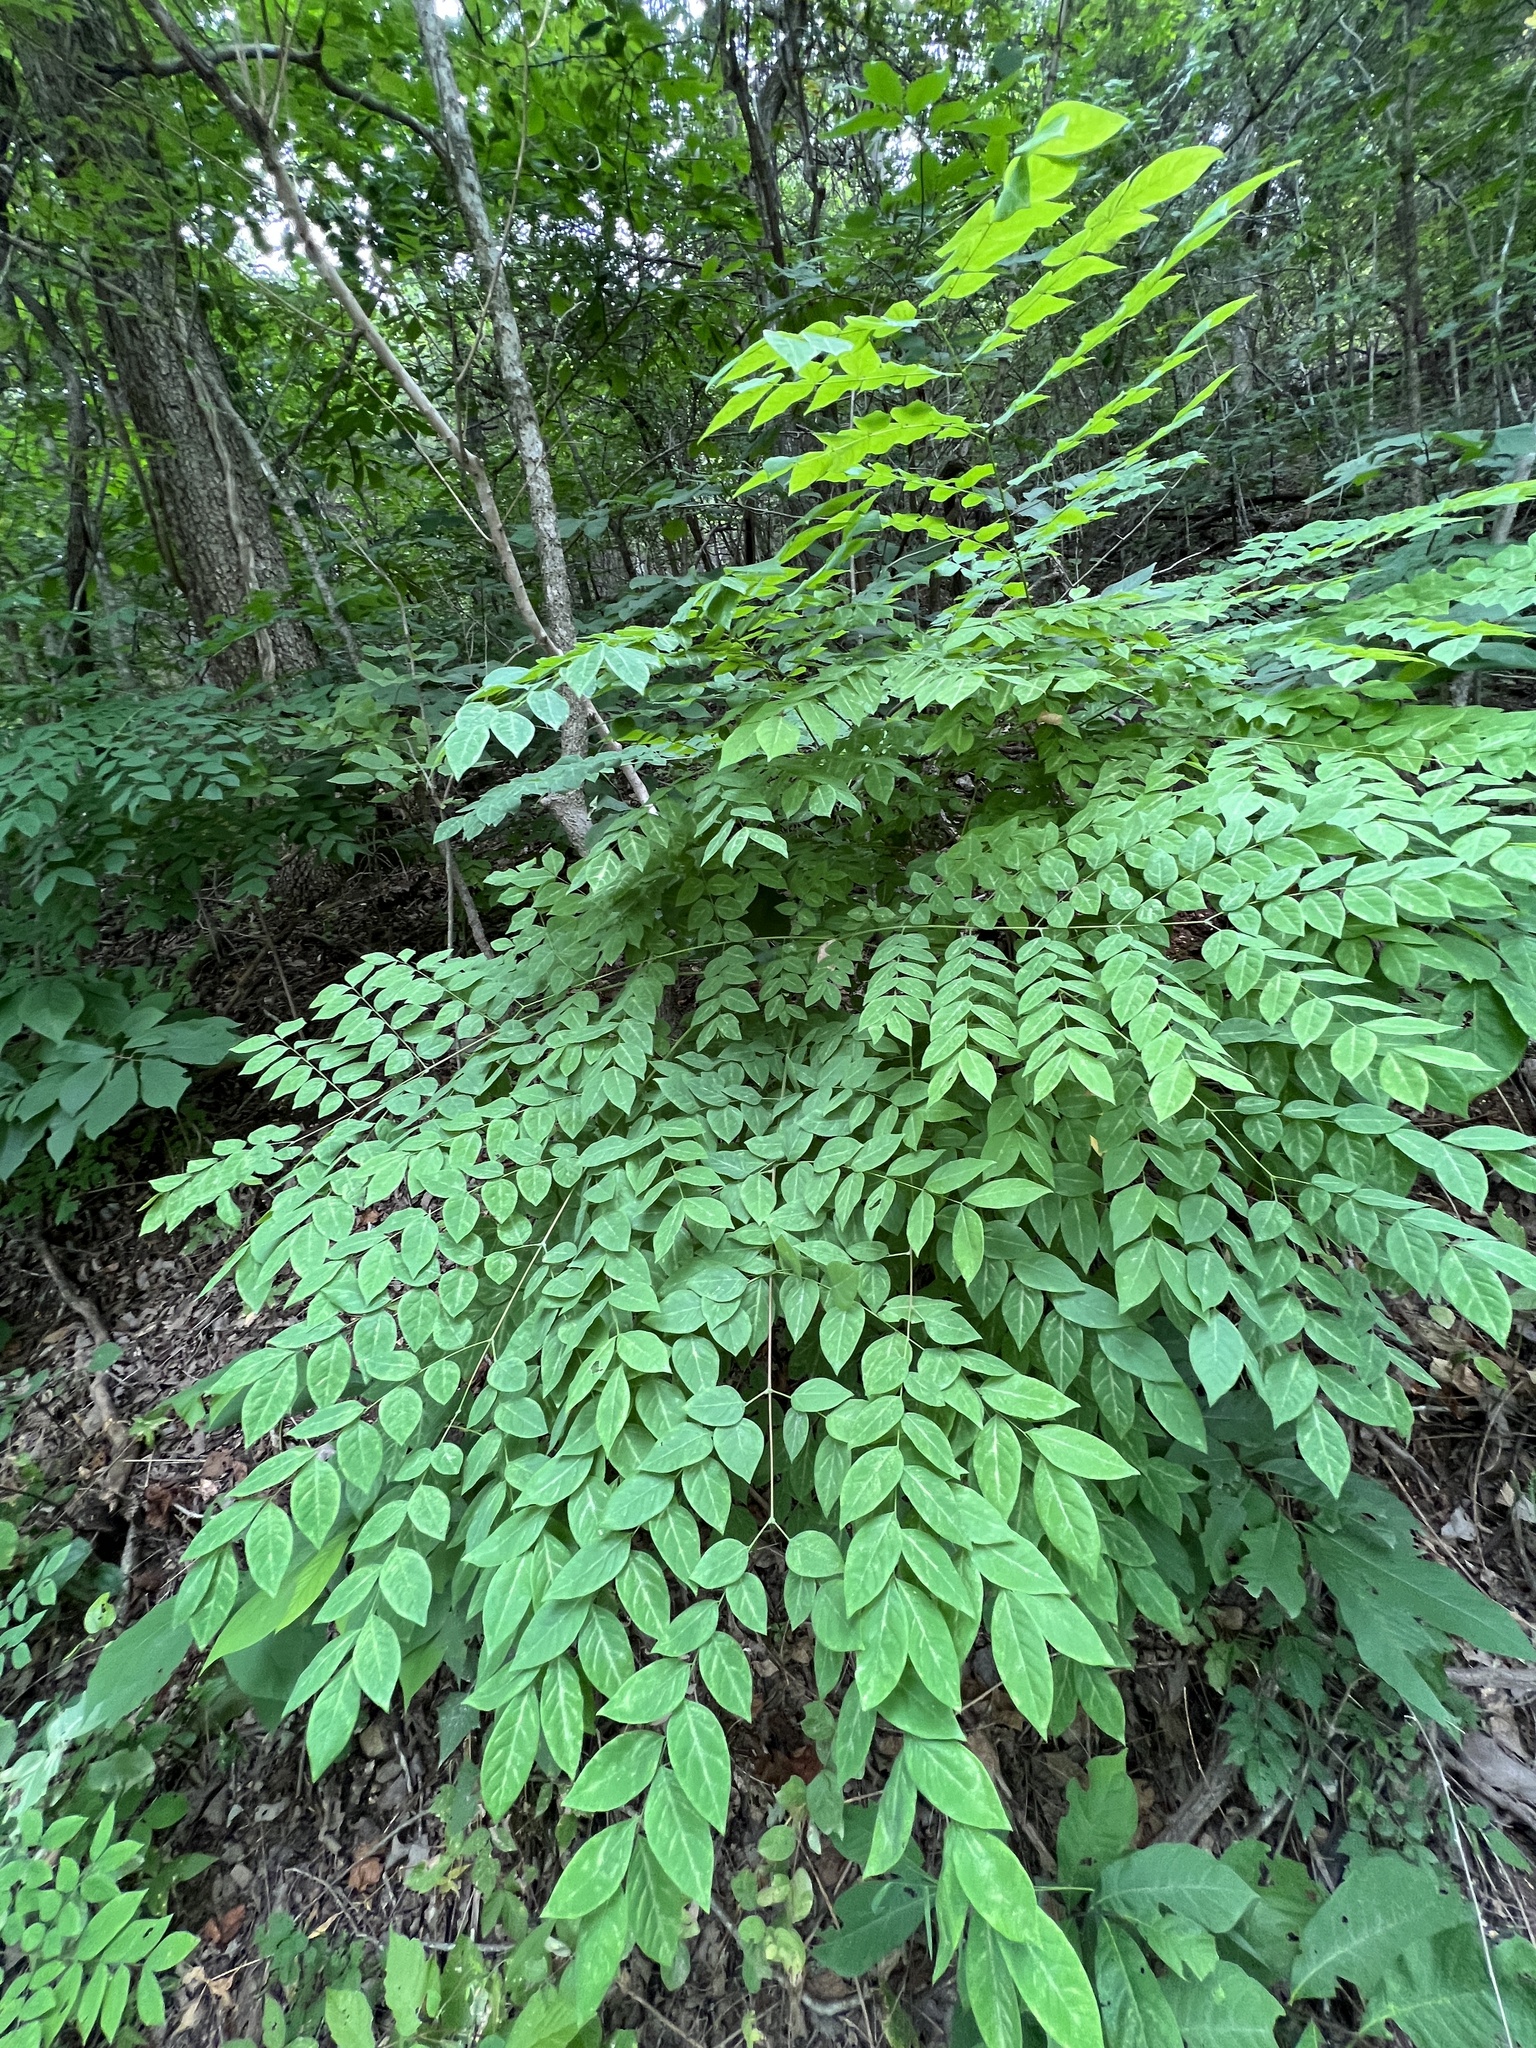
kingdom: Plantae
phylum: Tracheophyta
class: Magnoliopsida
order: Fabales
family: Fabaceae
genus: Gymnocladus
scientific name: Gymnocladus dioicus
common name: Kentucky coffee-tree
